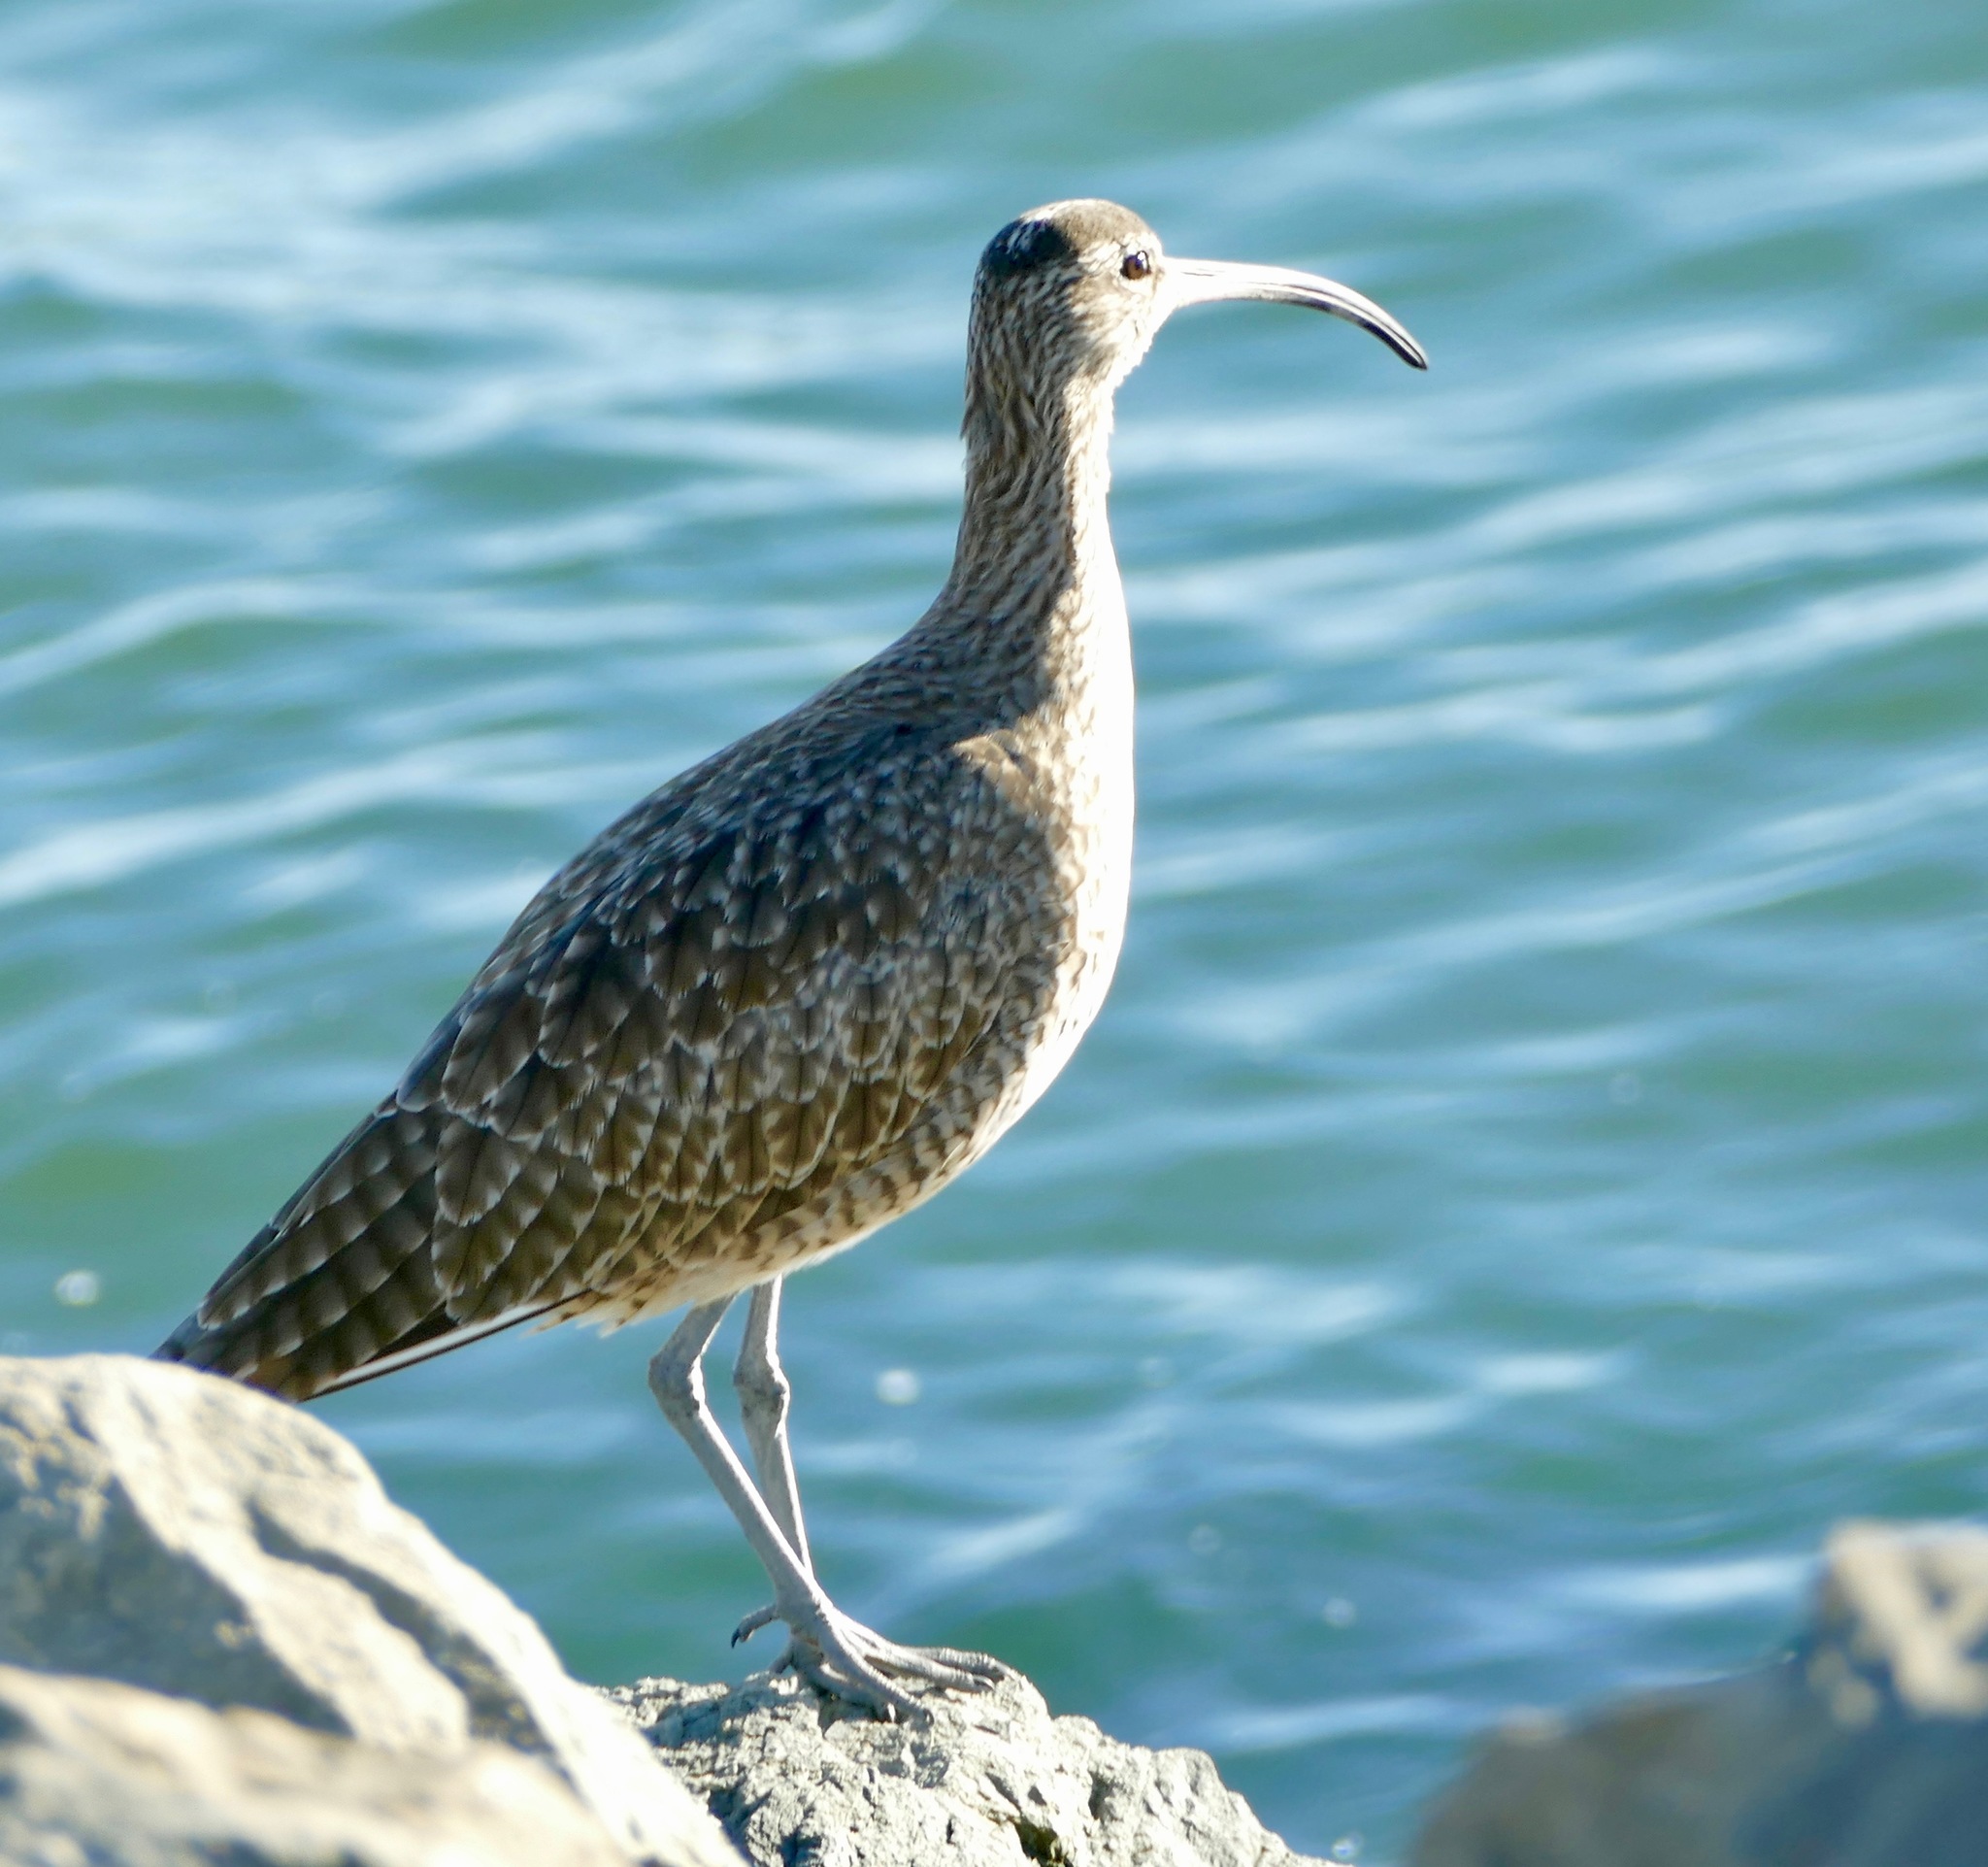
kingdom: Animalia
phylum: Chordata
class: Aves
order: Charadriiformes
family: Scolopacidae
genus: Numenius
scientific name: Numenius phaeopus
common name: Whimbrel
